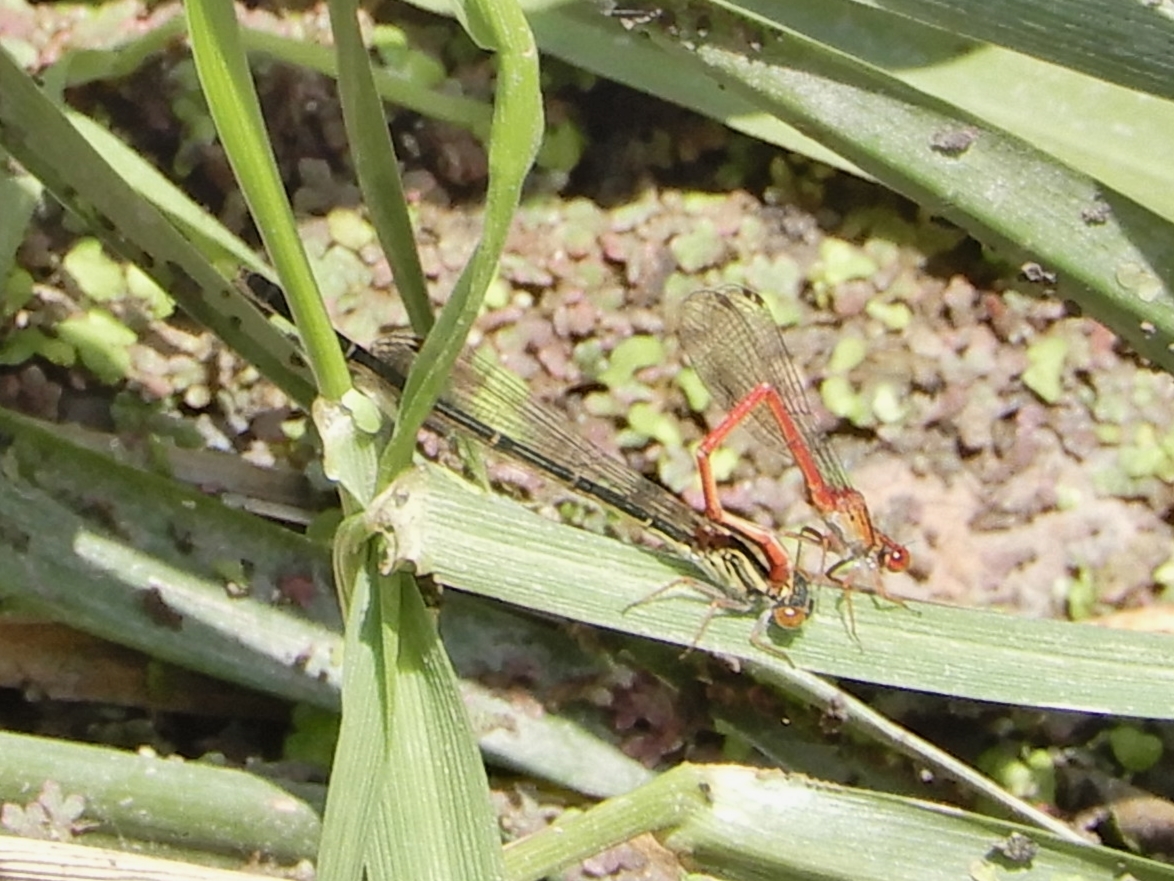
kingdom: Animalia
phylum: Arthropoda
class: Insecta
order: Odonata
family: Coenagrionidae
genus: Xanthocnemis
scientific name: Xanthocnemis zealandica
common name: Common redcoat damselfly
